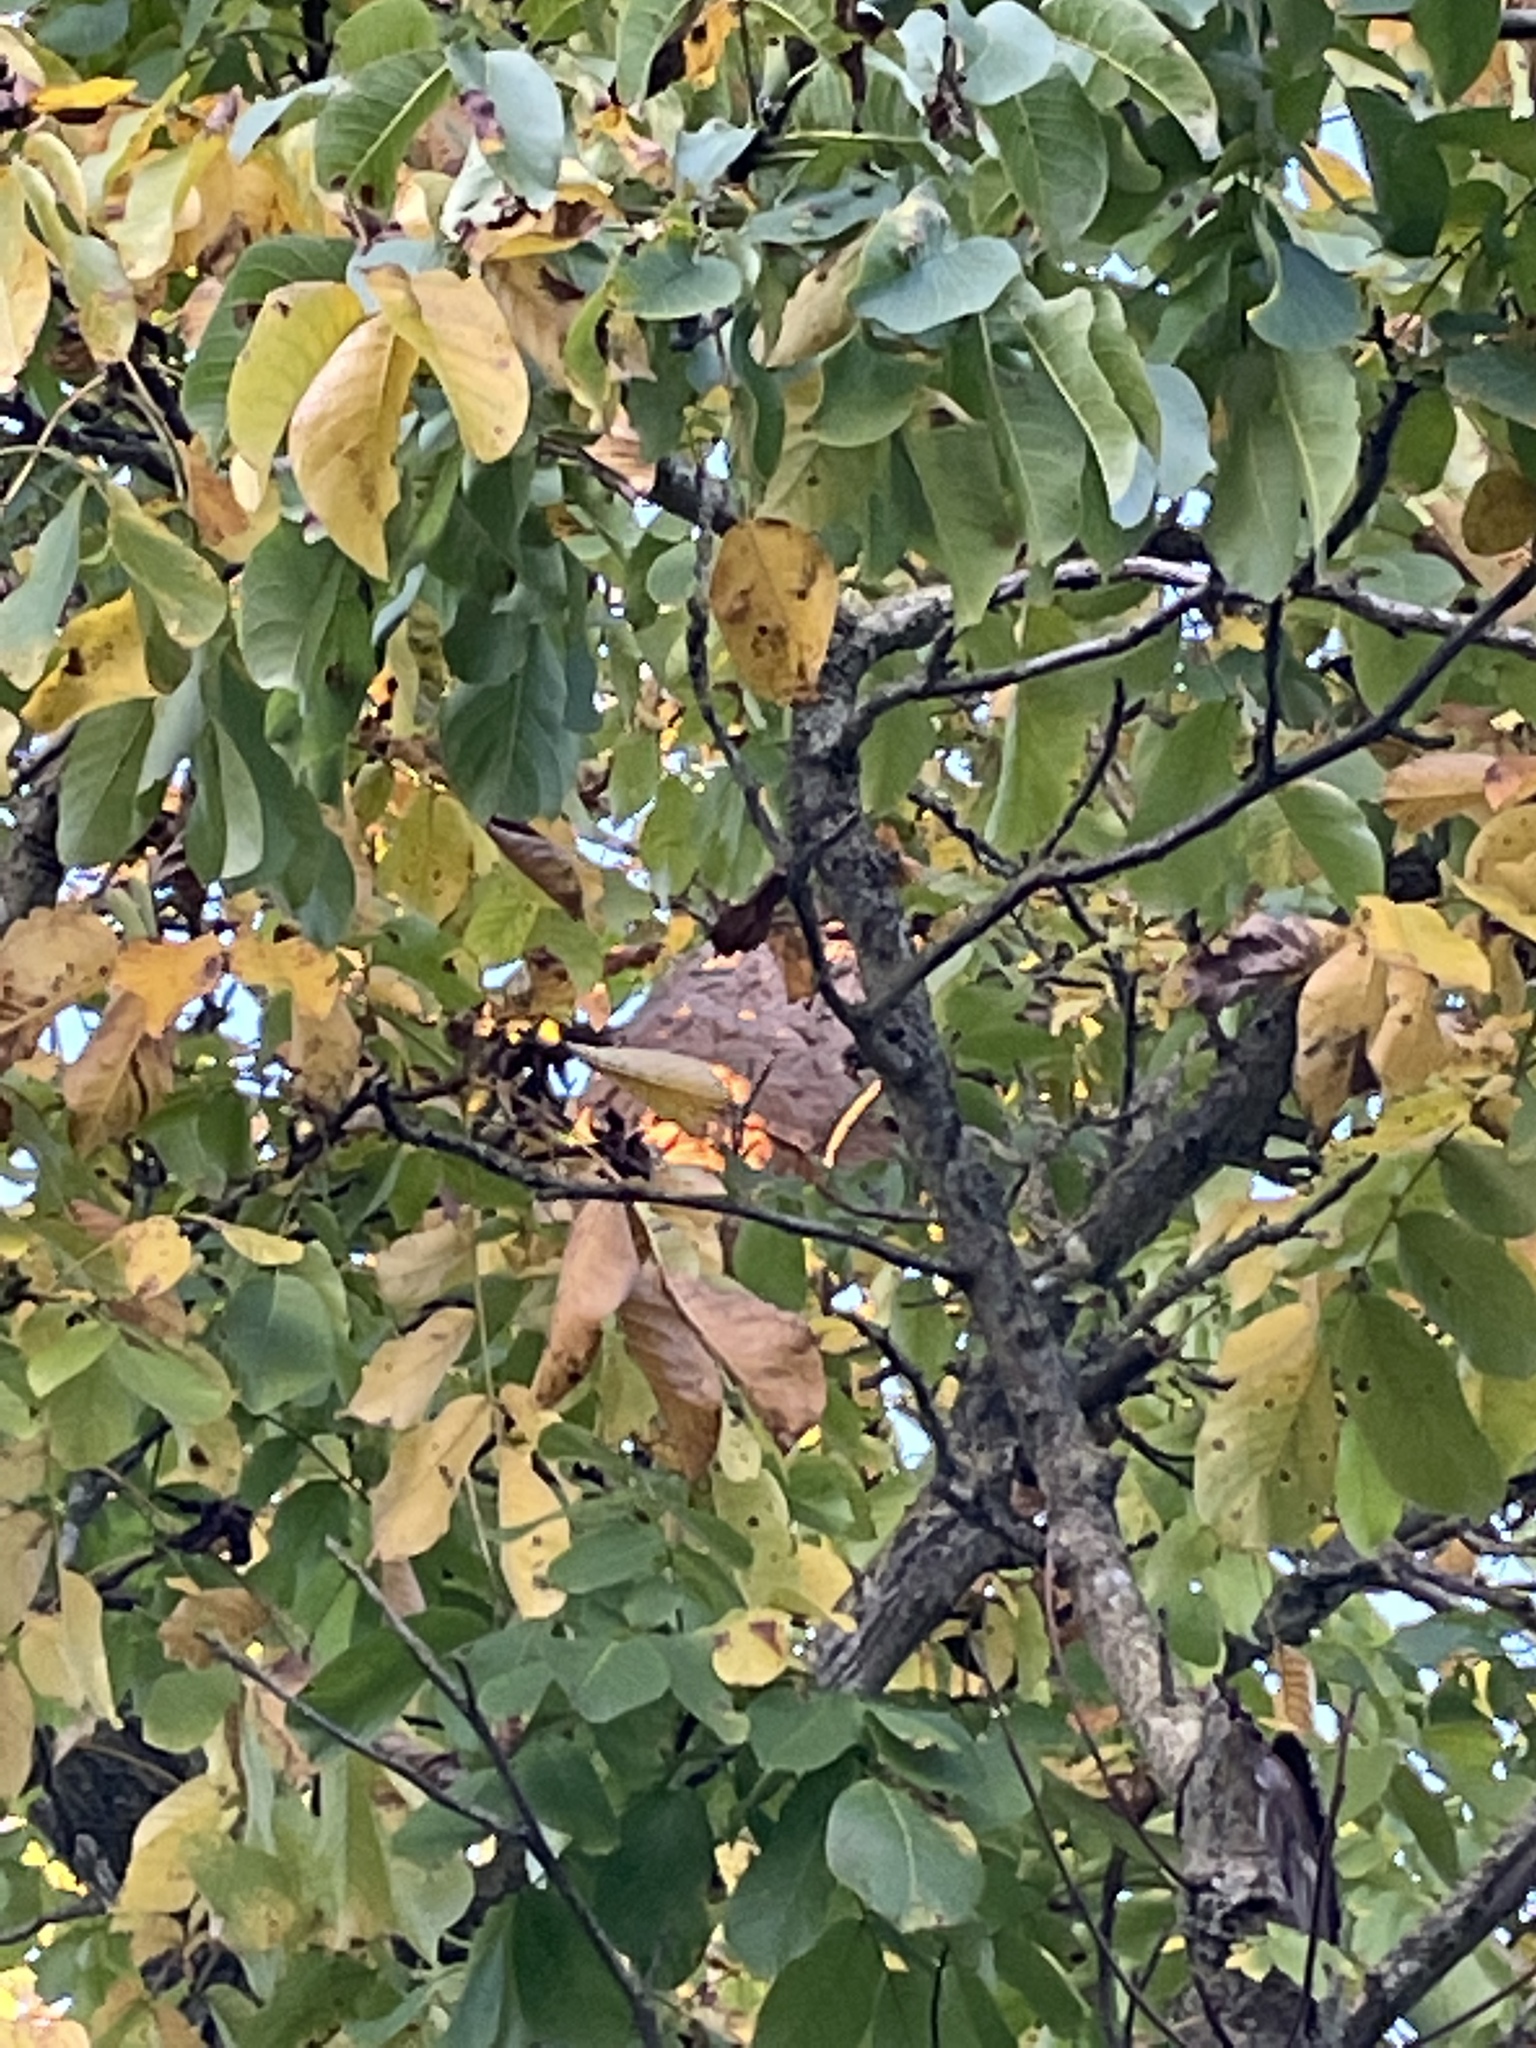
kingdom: Animalia
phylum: Arthropoda
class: Insecta
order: Hymenoptera
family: Vespidae
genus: Vespa
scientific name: Vespa velutina
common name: Asian hornet
